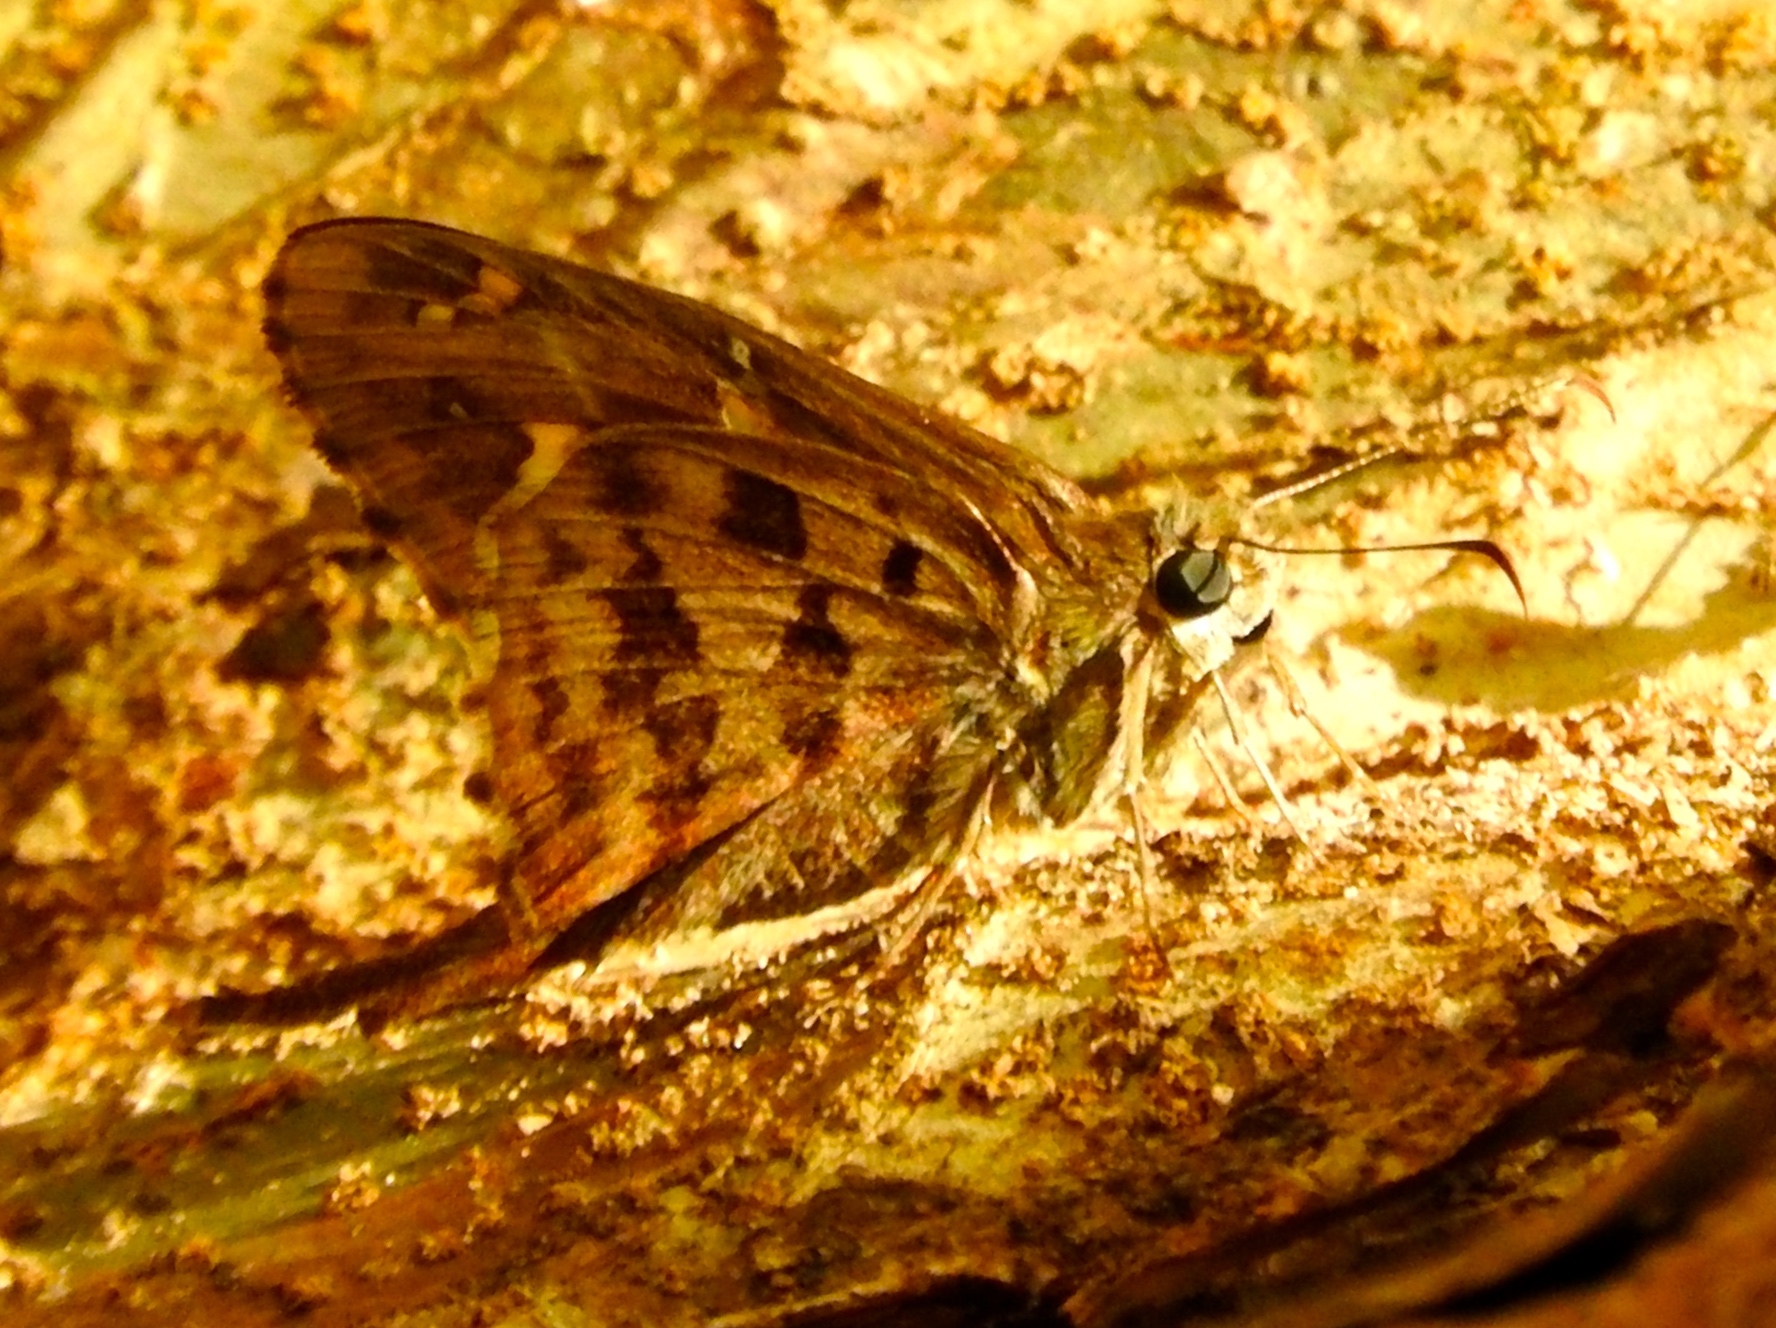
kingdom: Animalia
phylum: Arthropoda
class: Insecta
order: Lepidoptera
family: Hesperiidae
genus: Thorybes
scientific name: Thorybes
